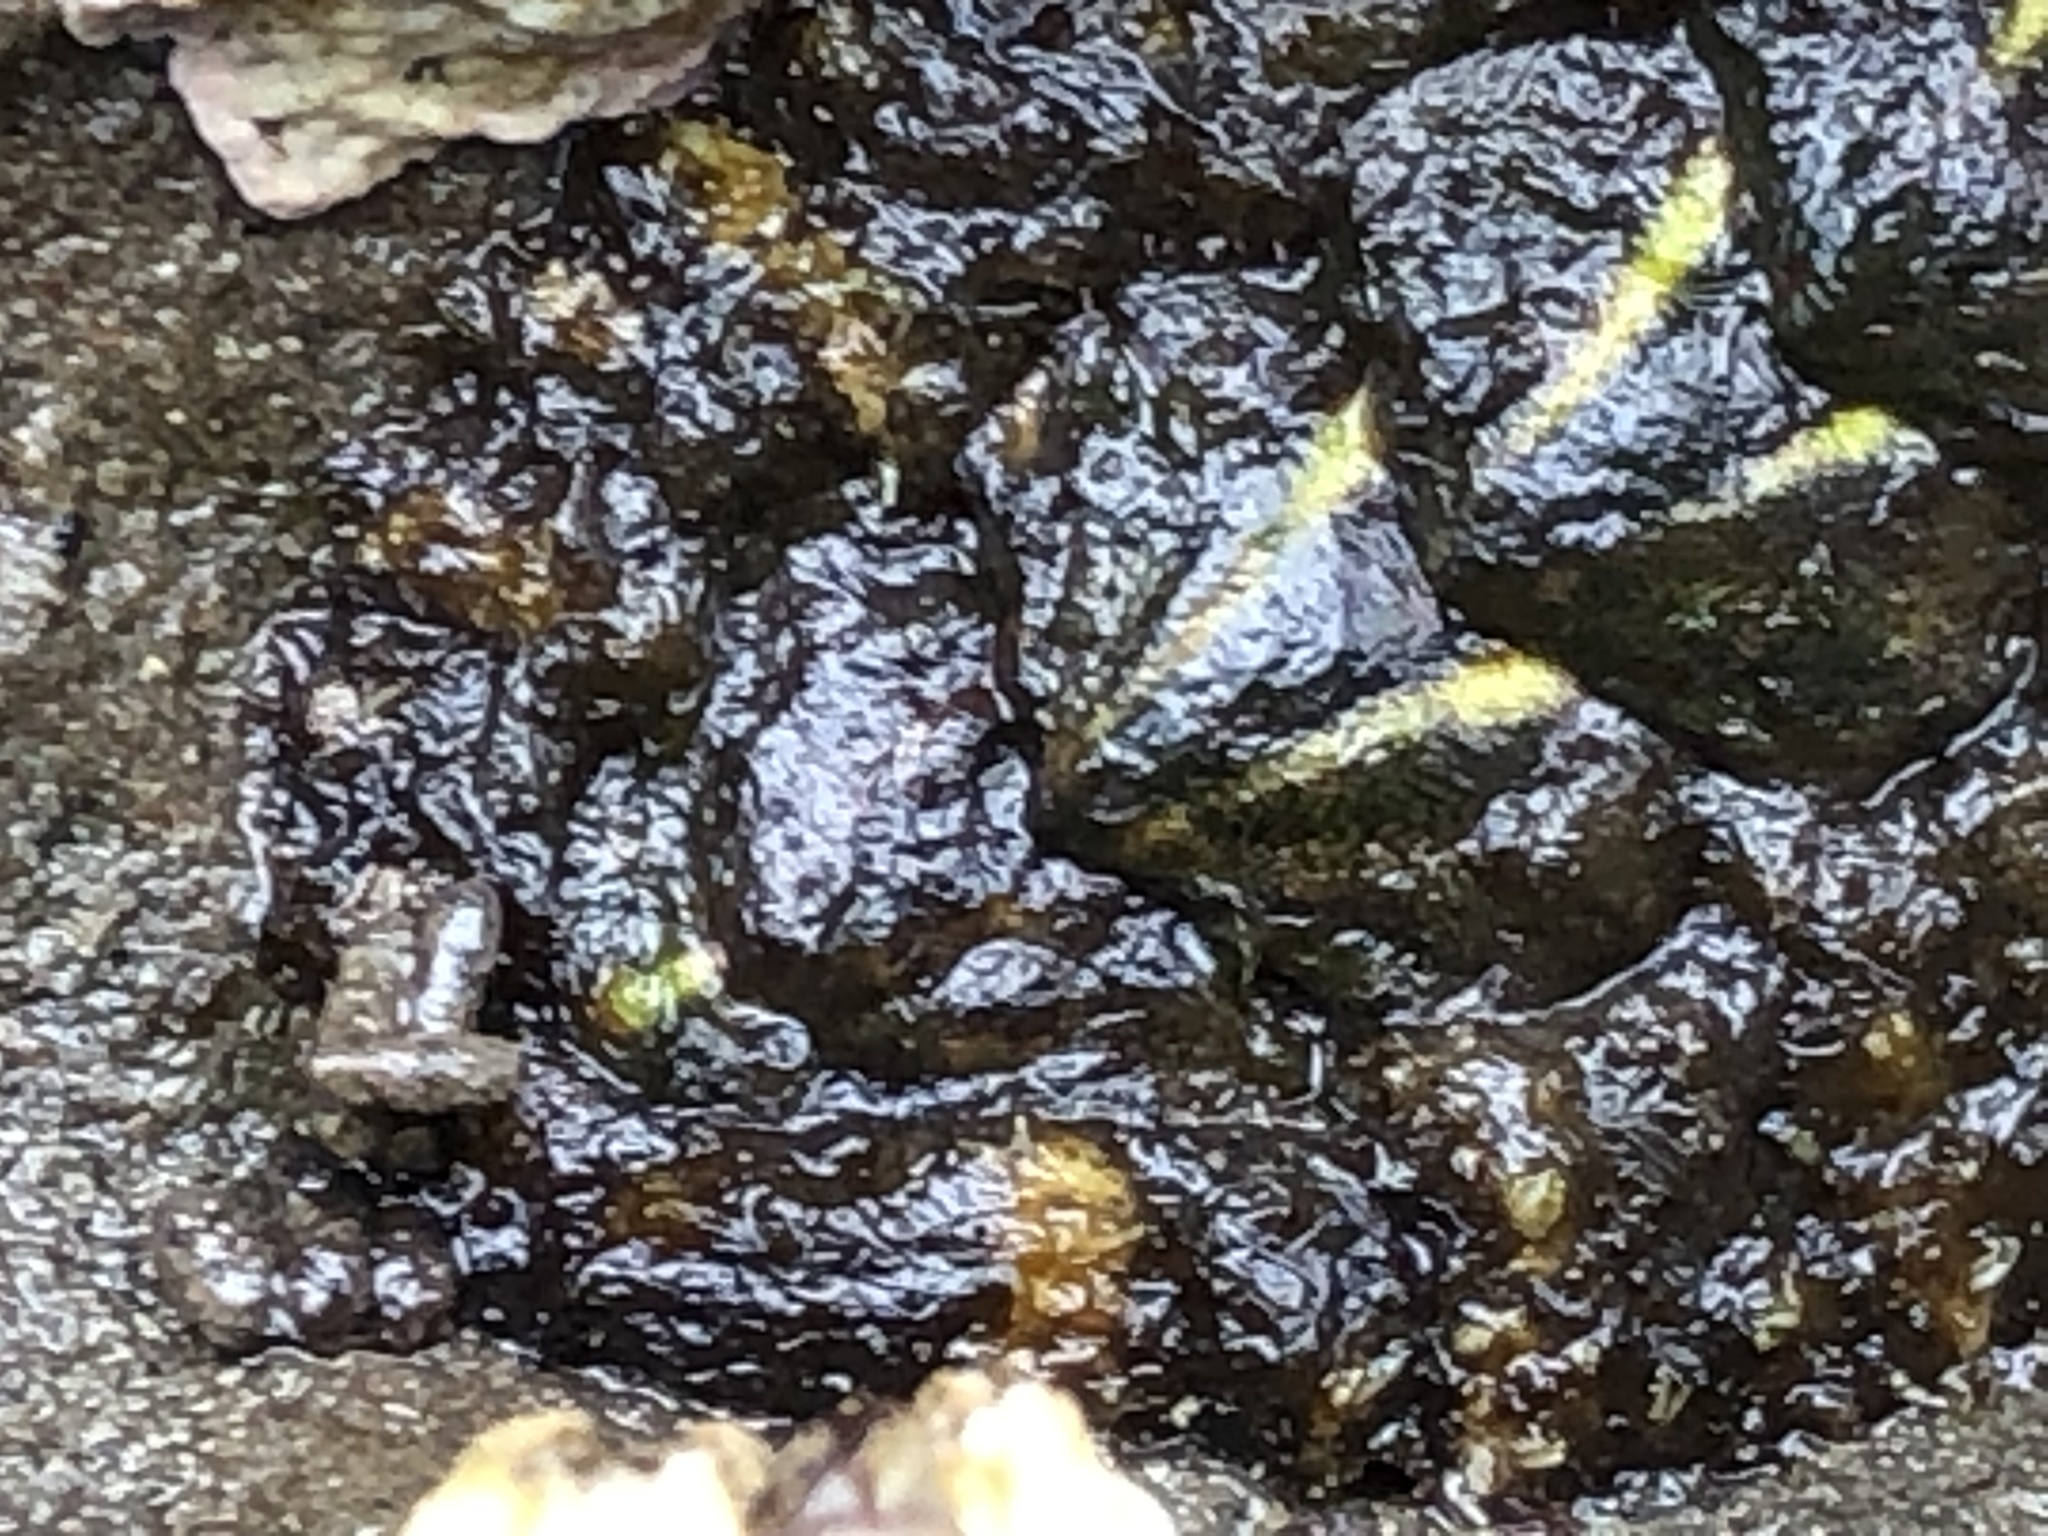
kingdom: Animalia
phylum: Mollusca
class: Polyplacophora
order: Chitonida
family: Tonicellidae
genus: Nuttallina
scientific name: Nuttallina californica
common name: California nuttall chiton
